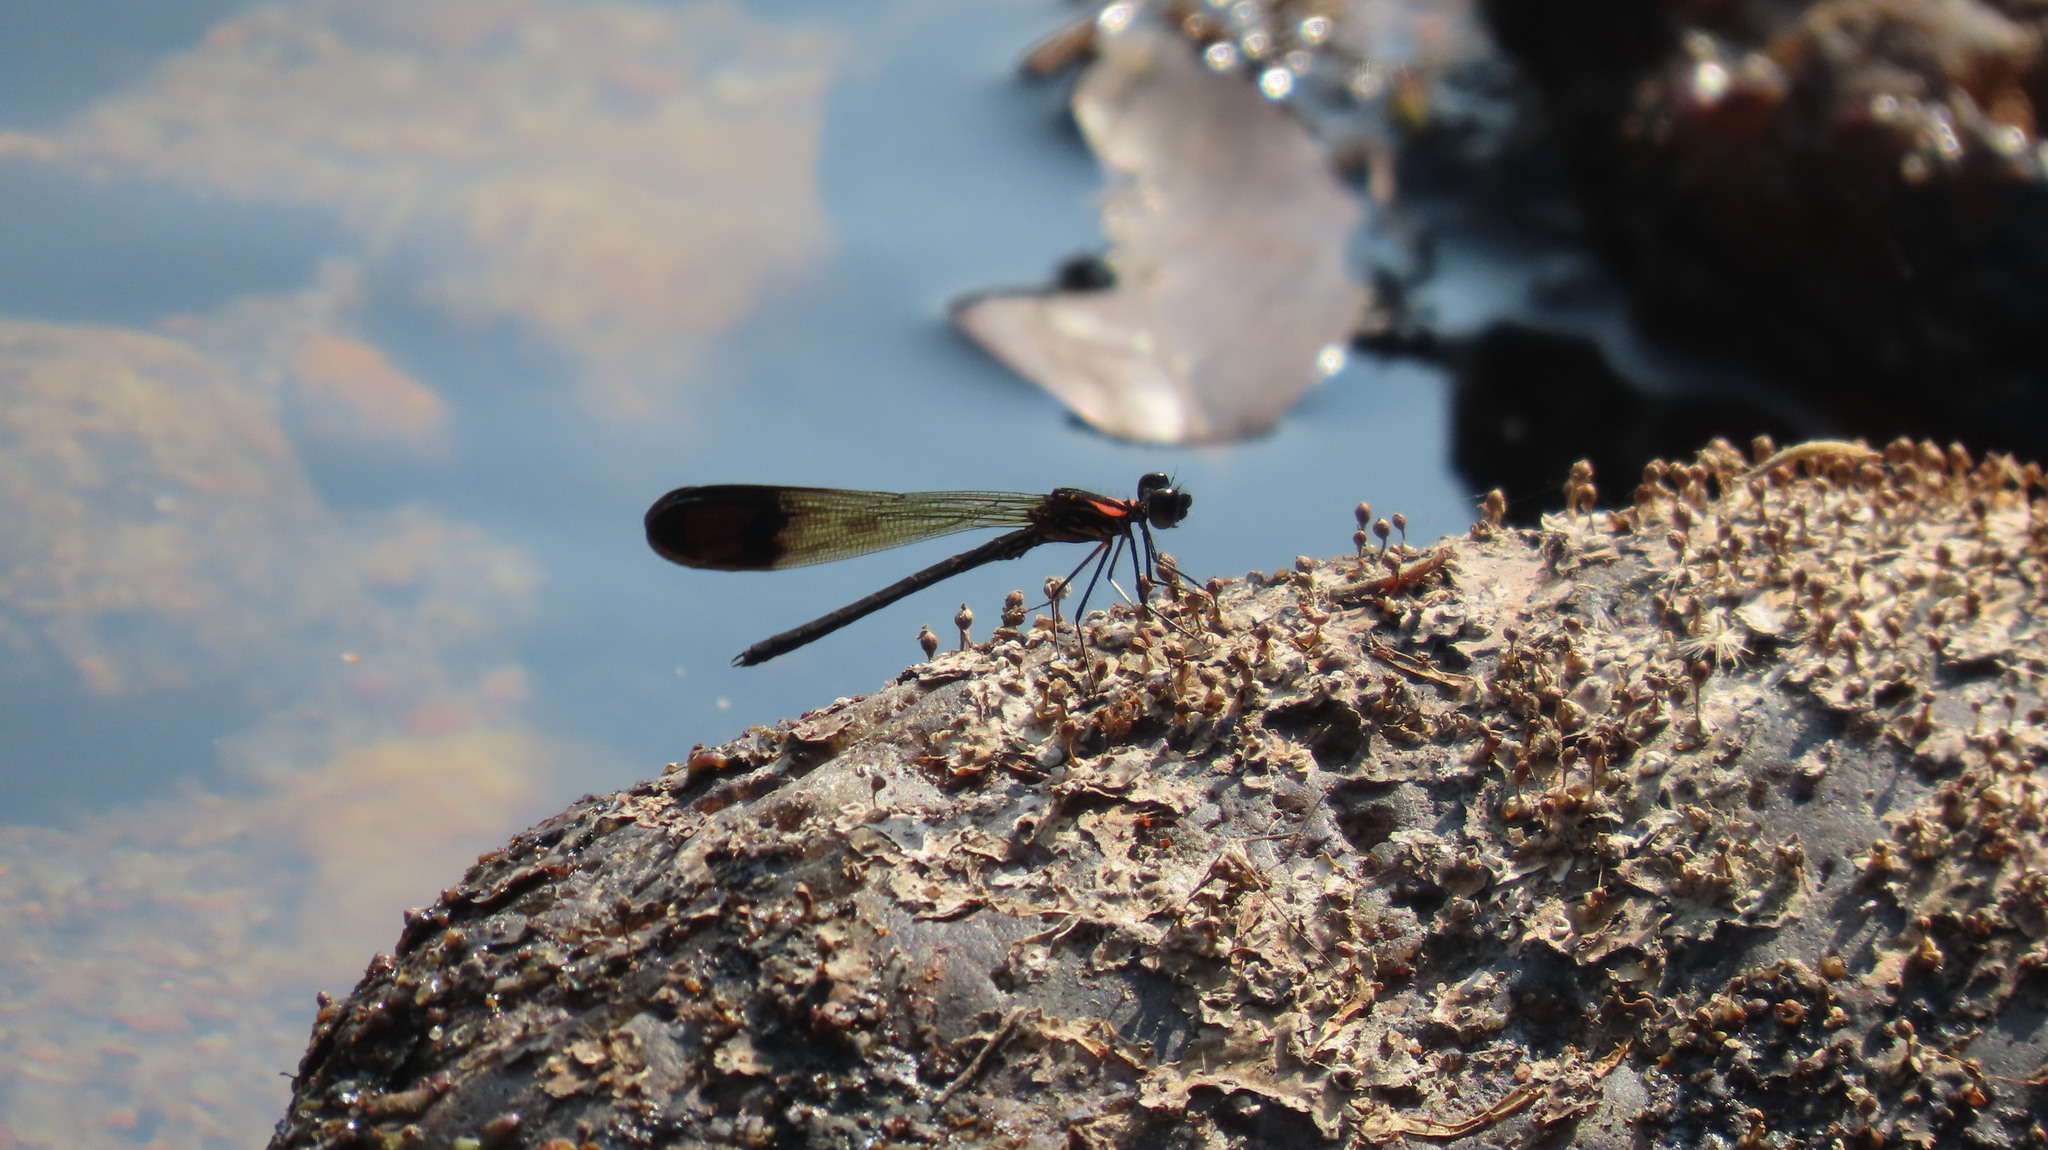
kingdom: Animalia
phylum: Arthropoda
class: Insecta
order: Odonata
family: Chlorocyphidae
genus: Heliocypha
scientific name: Heliocypha bisignata
